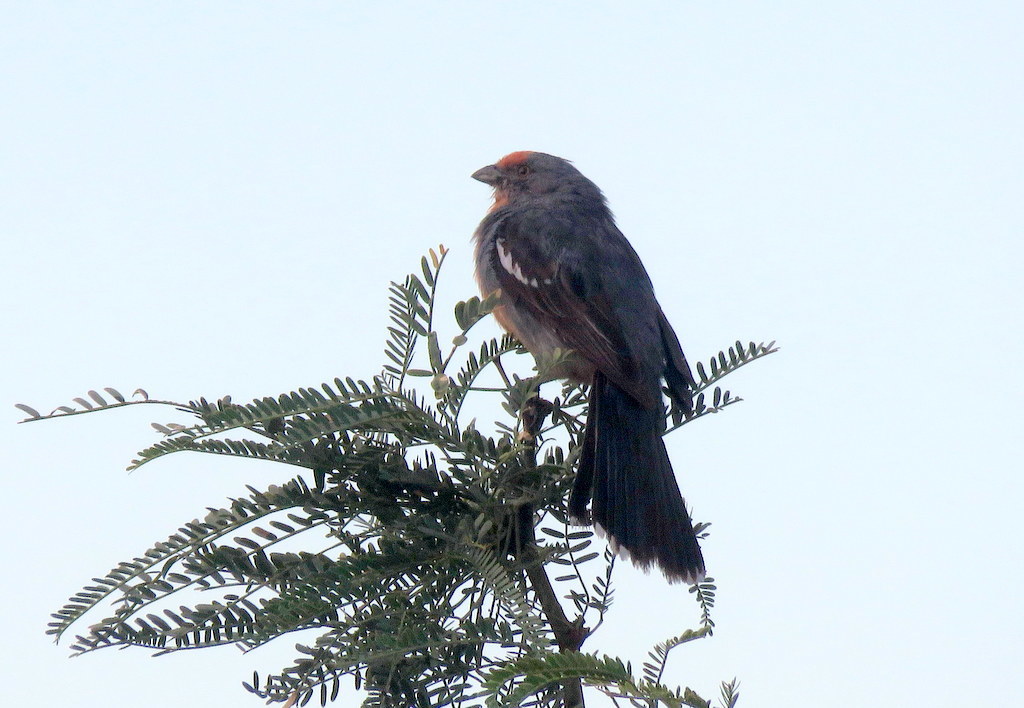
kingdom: Animalia
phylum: Chordata
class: Aves
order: Passeriformes
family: Cotingidae
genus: Phytotoma
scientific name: Phytotoma rutila
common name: White-tipped plantcutter
